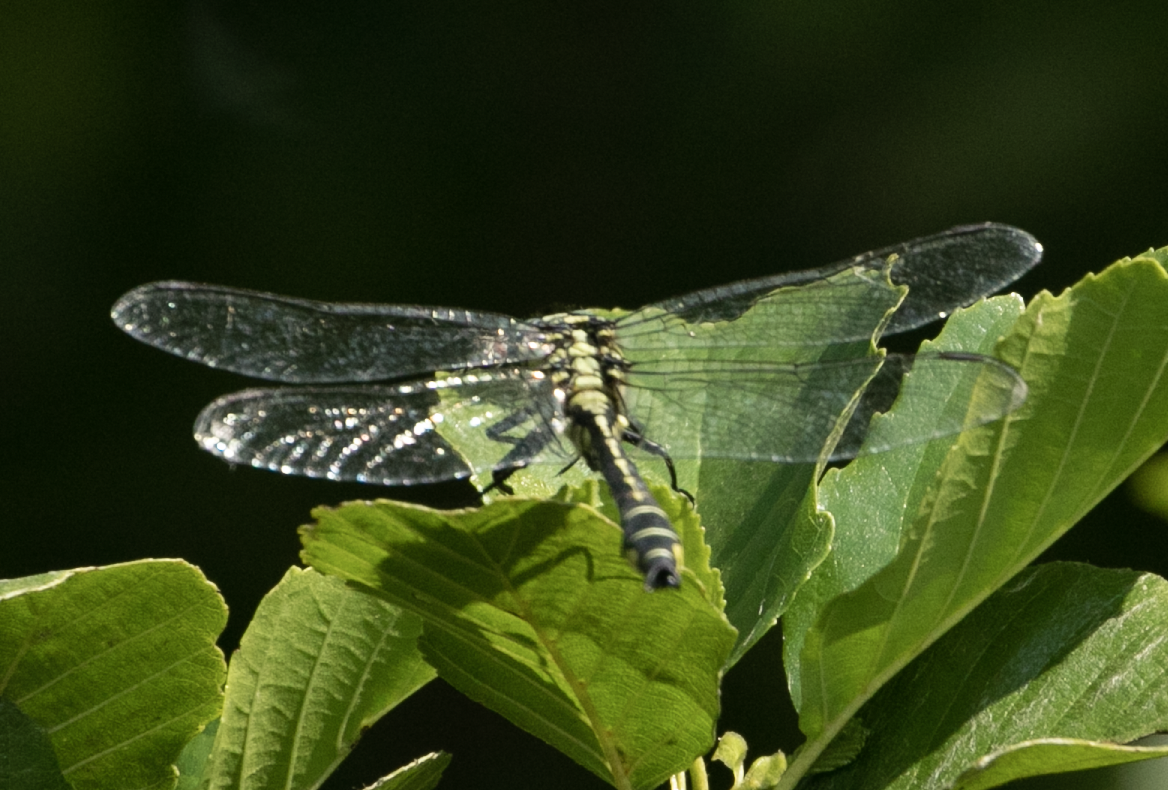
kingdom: Animalia
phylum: Arthropoda
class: Insecta
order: Odonata
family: Gomphidae
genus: Gomphus
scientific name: Gomphus vulgatissimus
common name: Club-tailed dragonfly
